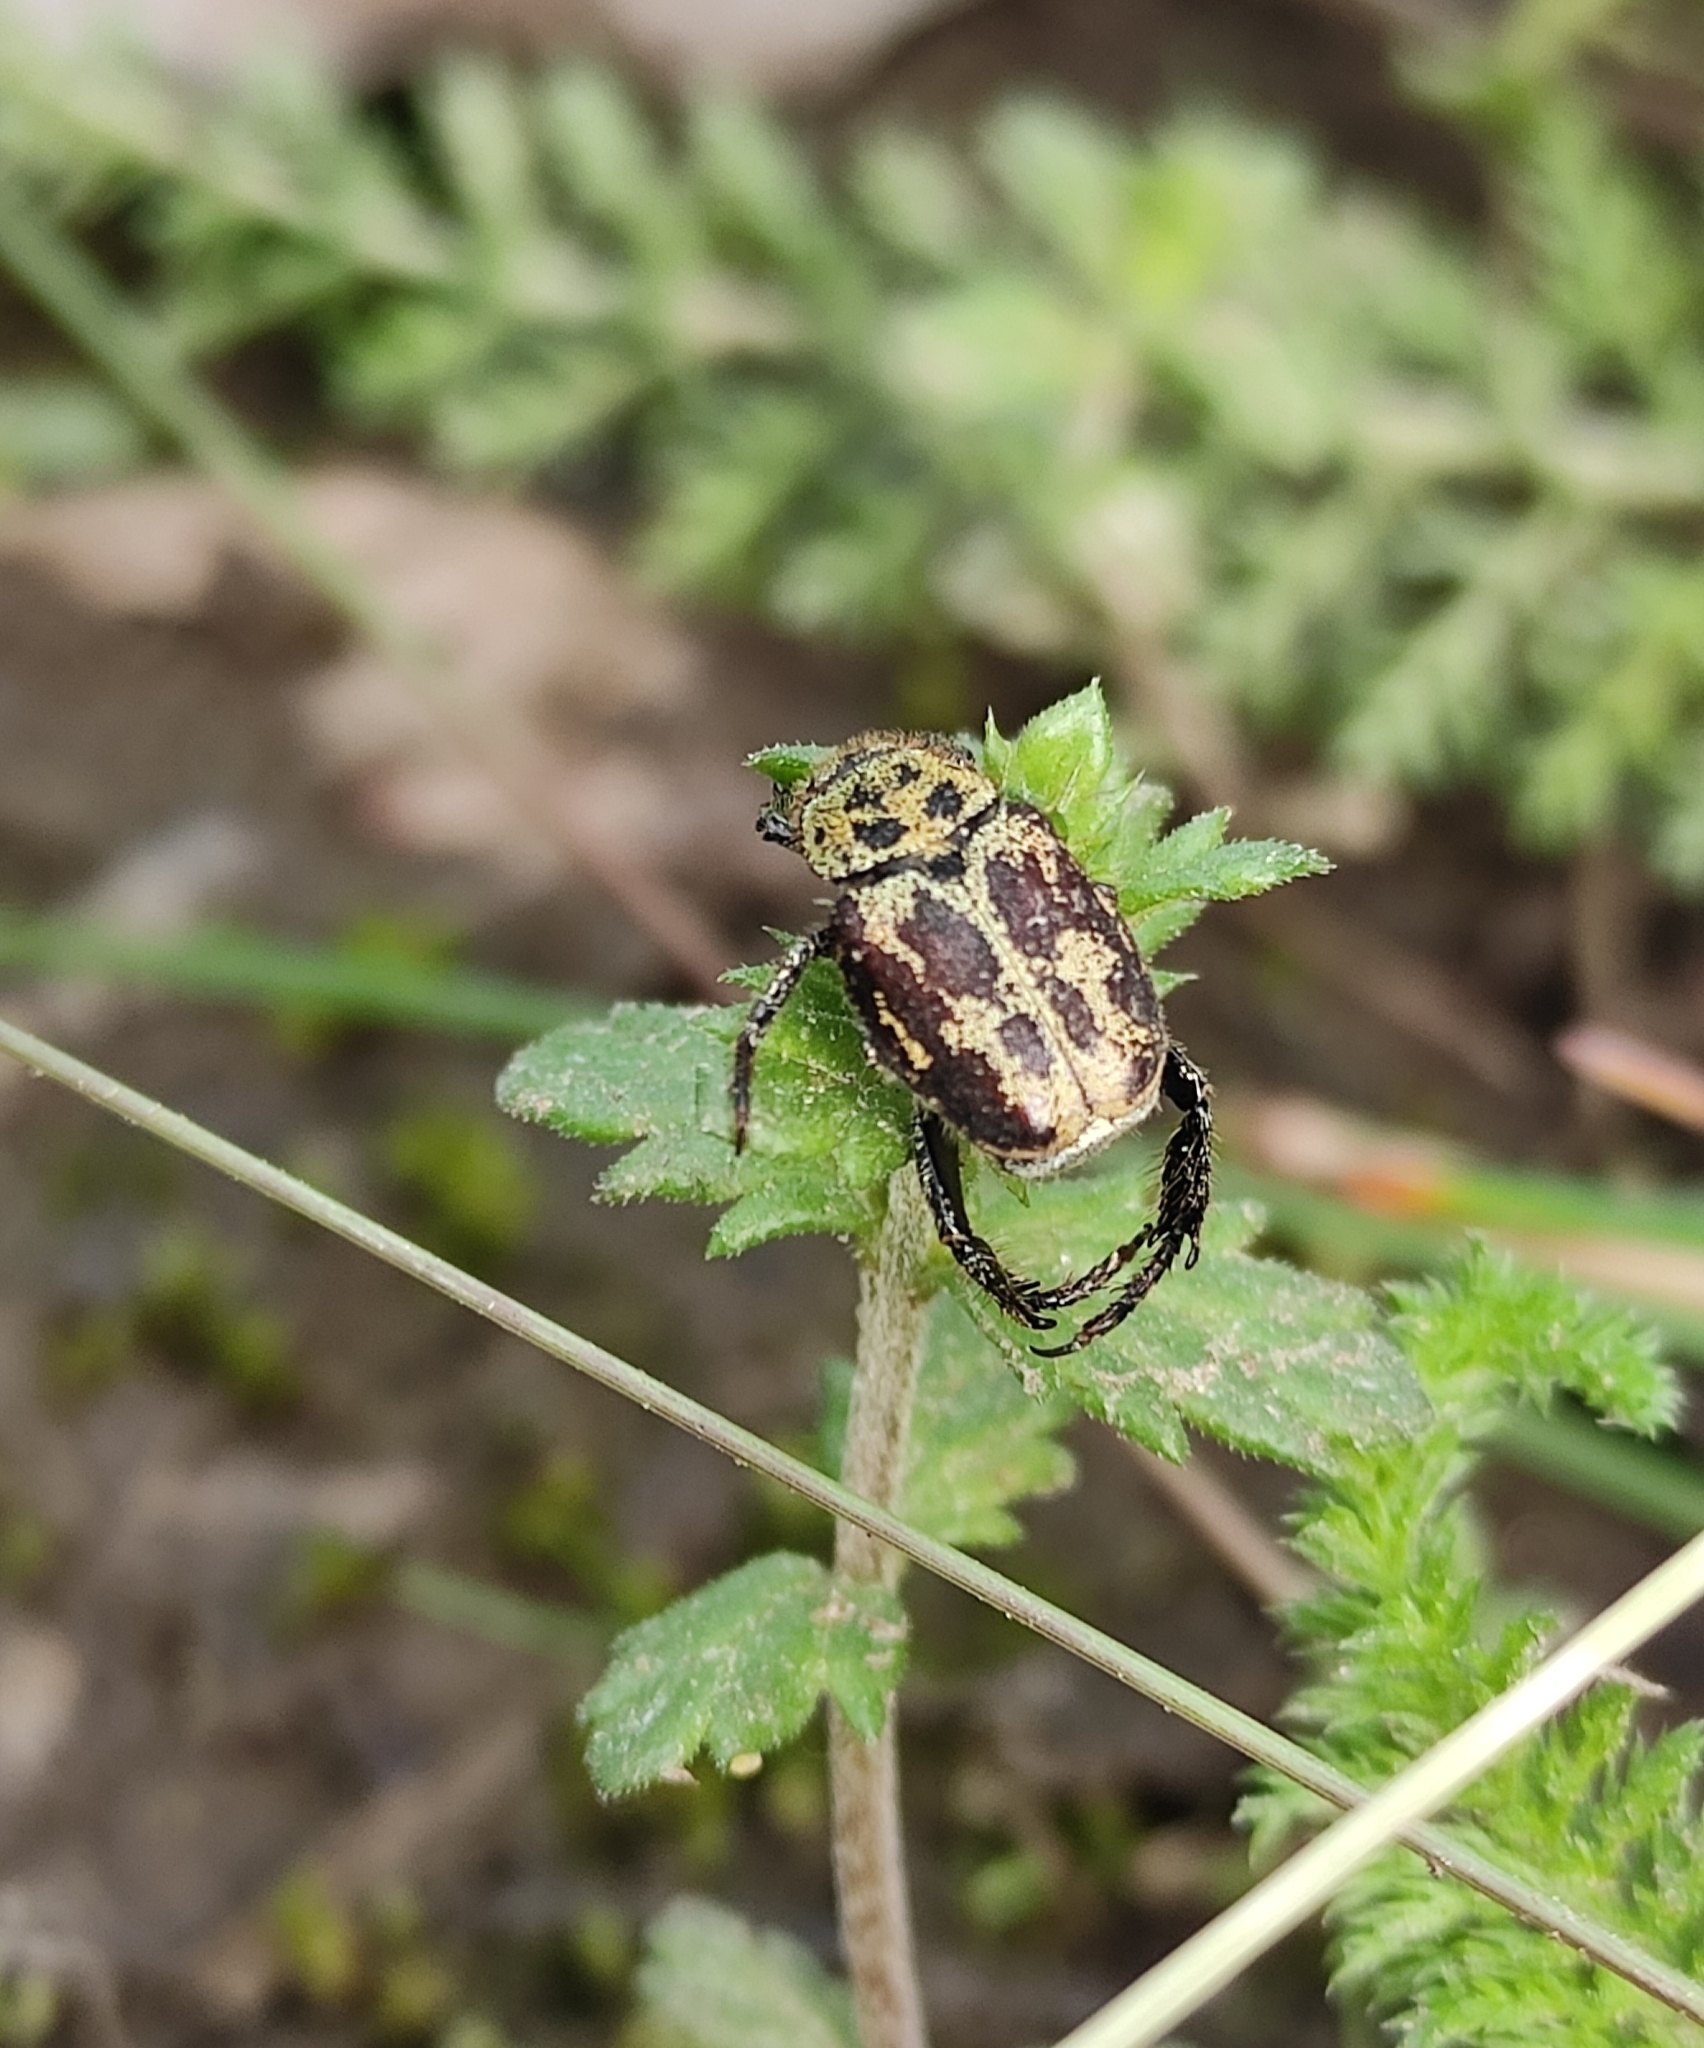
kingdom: Animalia
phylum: Arthropoda
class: Insecta
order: Coleoptera
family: Scarabaeidae
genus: Hoplia
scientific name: Hoplia aureola
